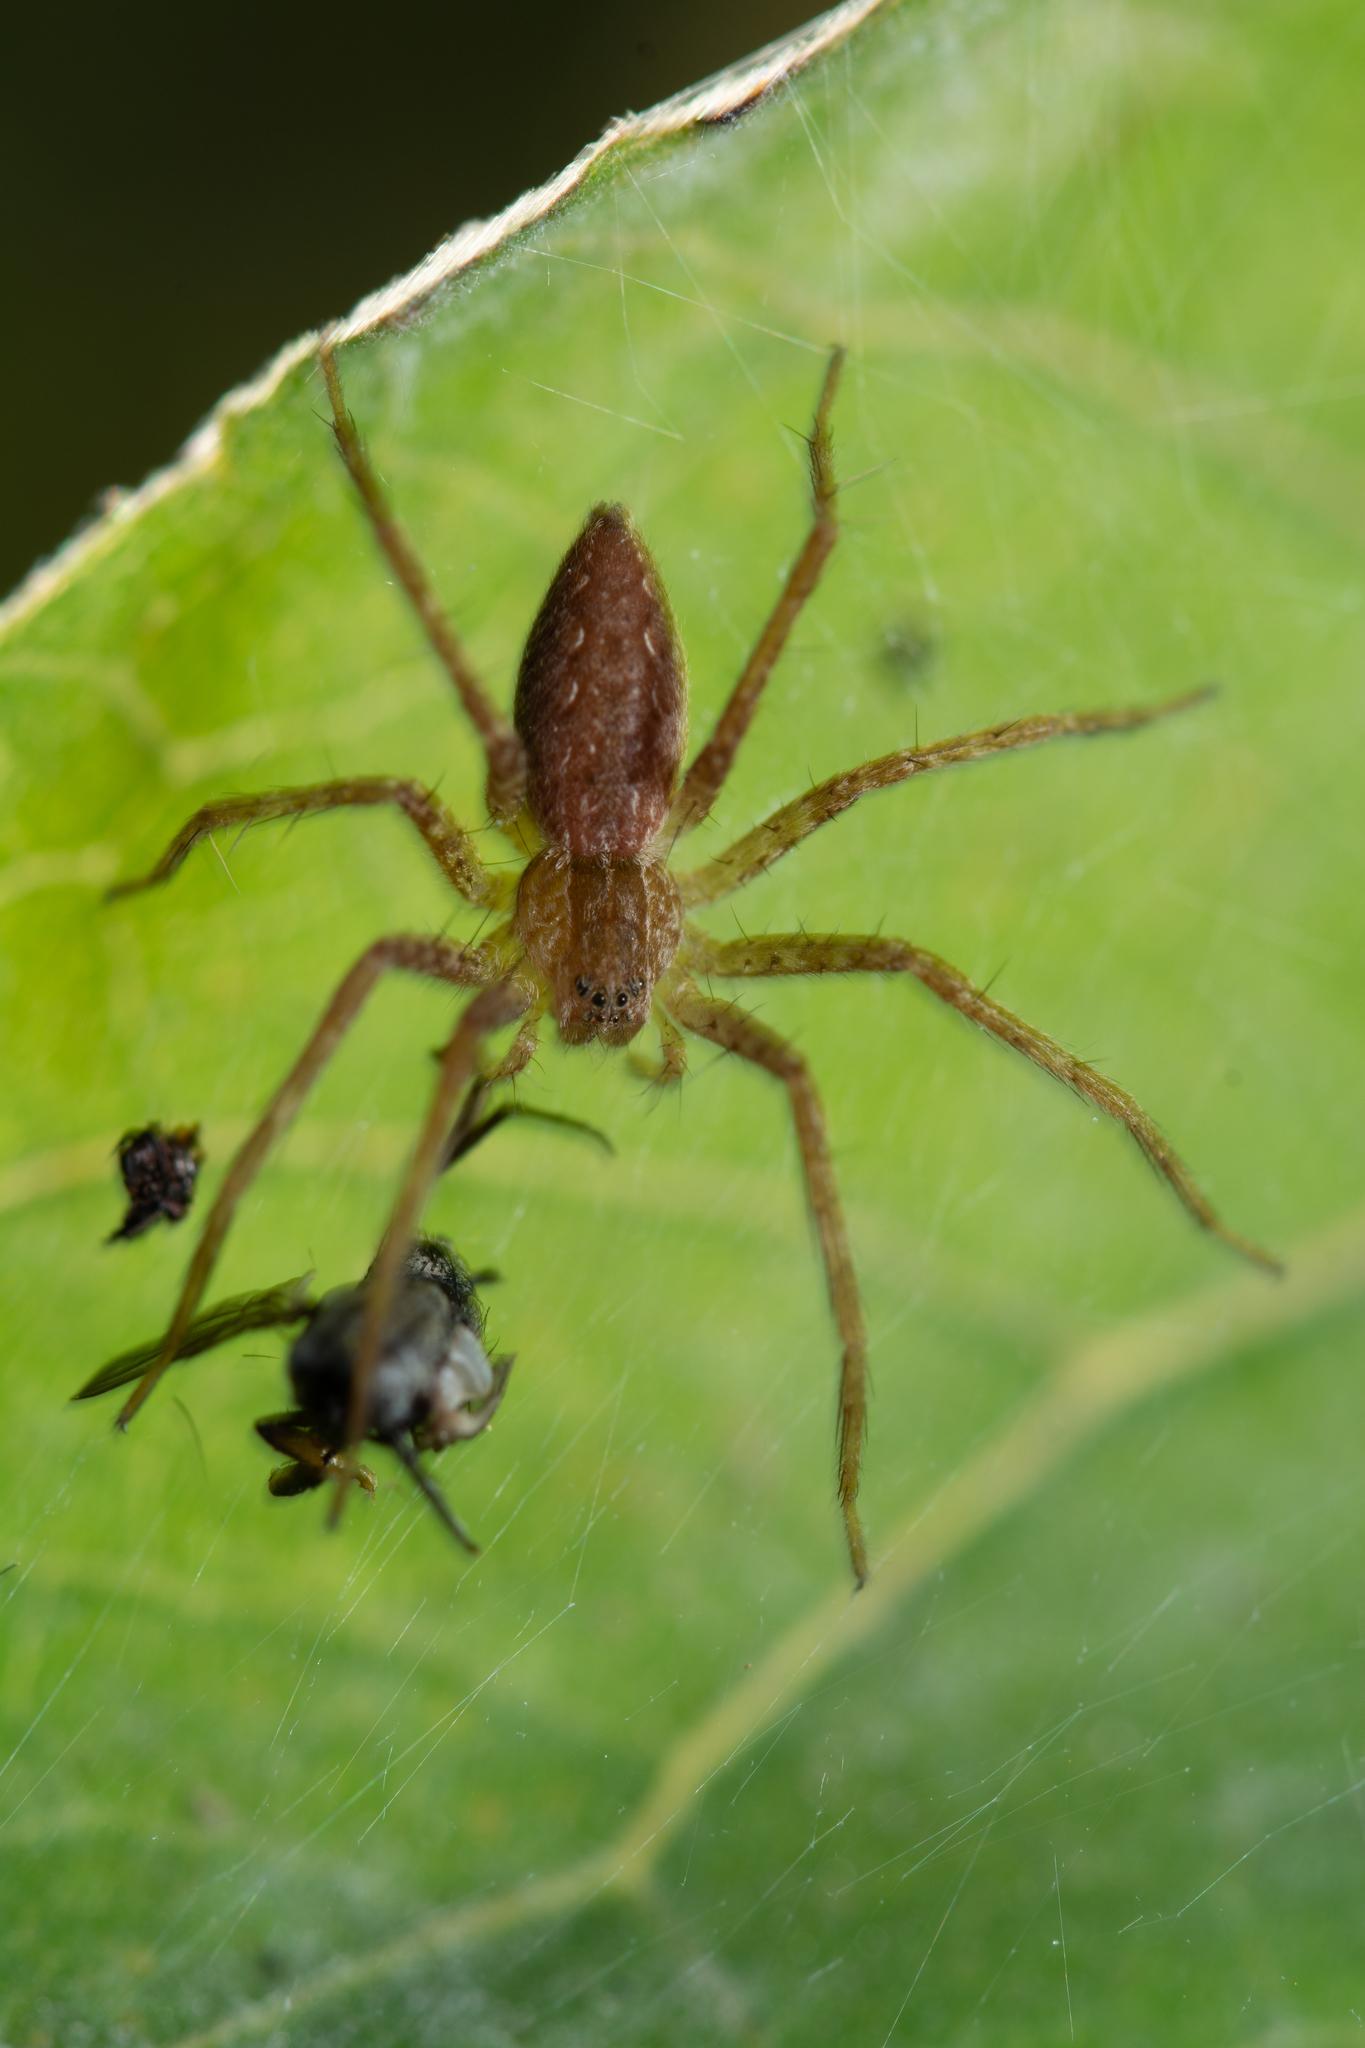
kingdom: Animalia
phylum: Arthropoda
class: Arachnida
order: Araneae
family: Pisauridae
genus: Pisaurina
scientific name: Pisaurina mira
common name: American nursery web spider
